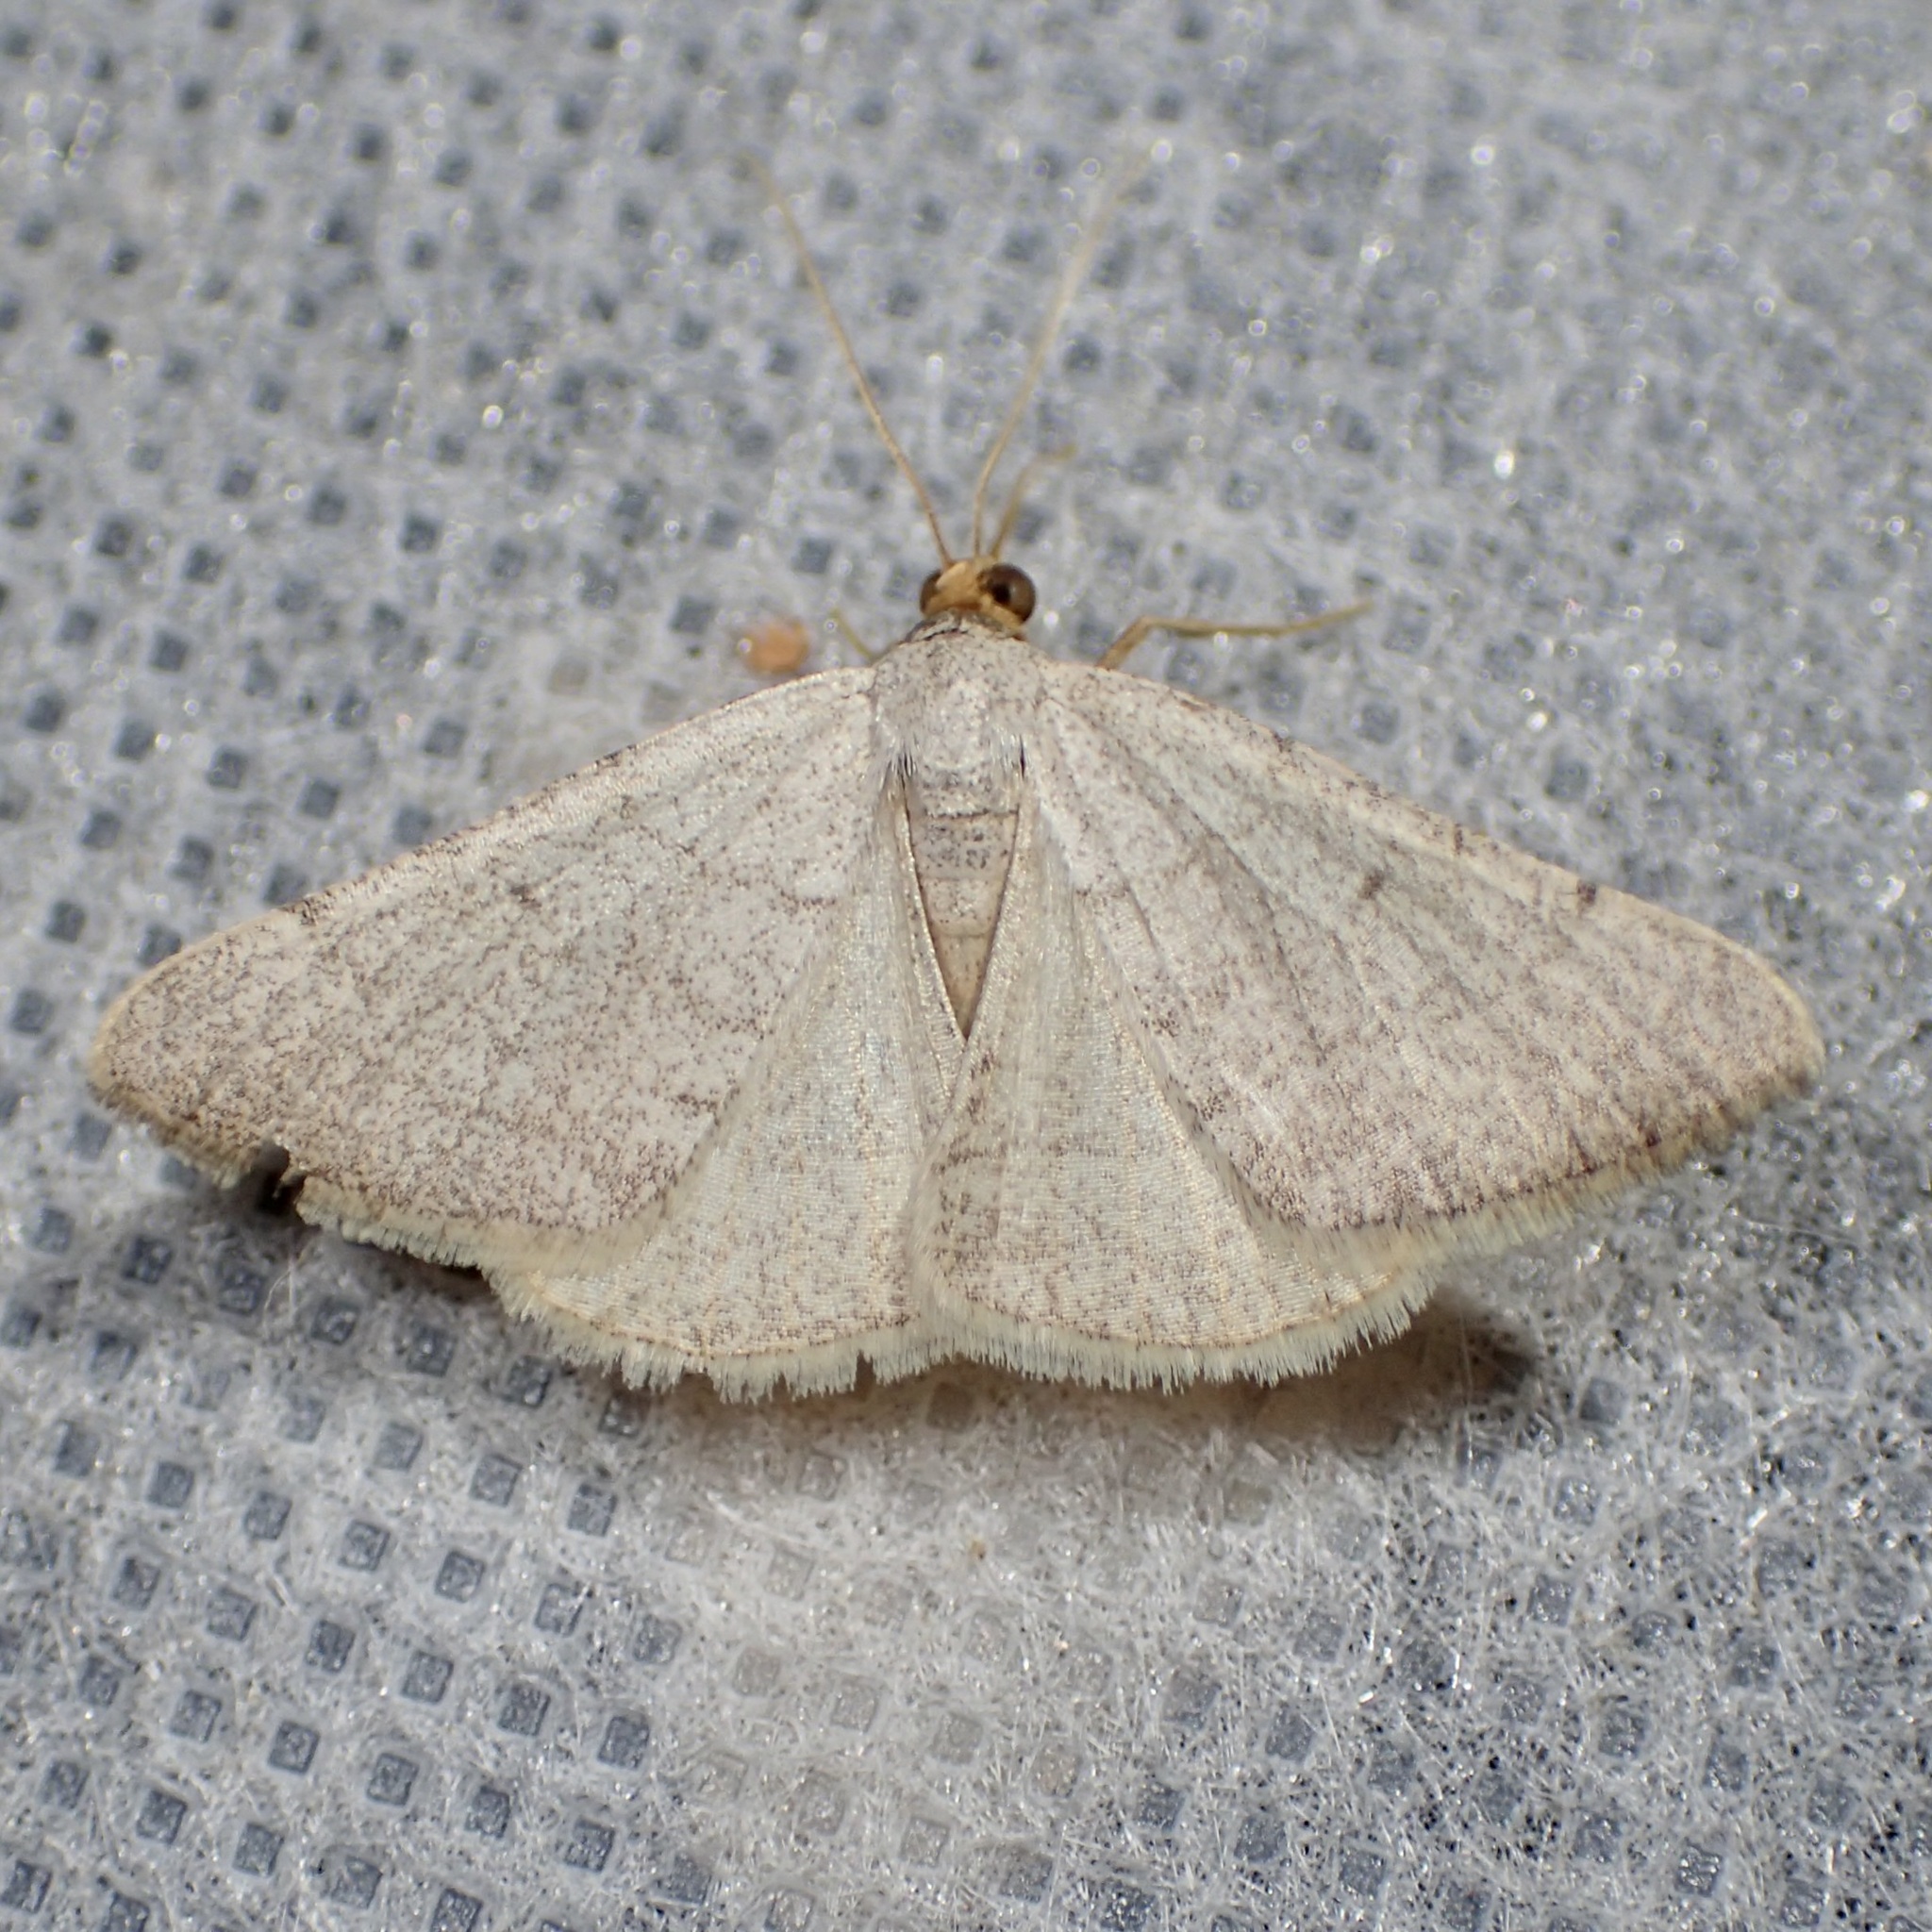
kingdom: Animalia
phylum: Arthropoda
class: Insecta
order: Lepidoptera
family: Geometridae
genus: Macaria
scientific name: Macaria tenebrosata
